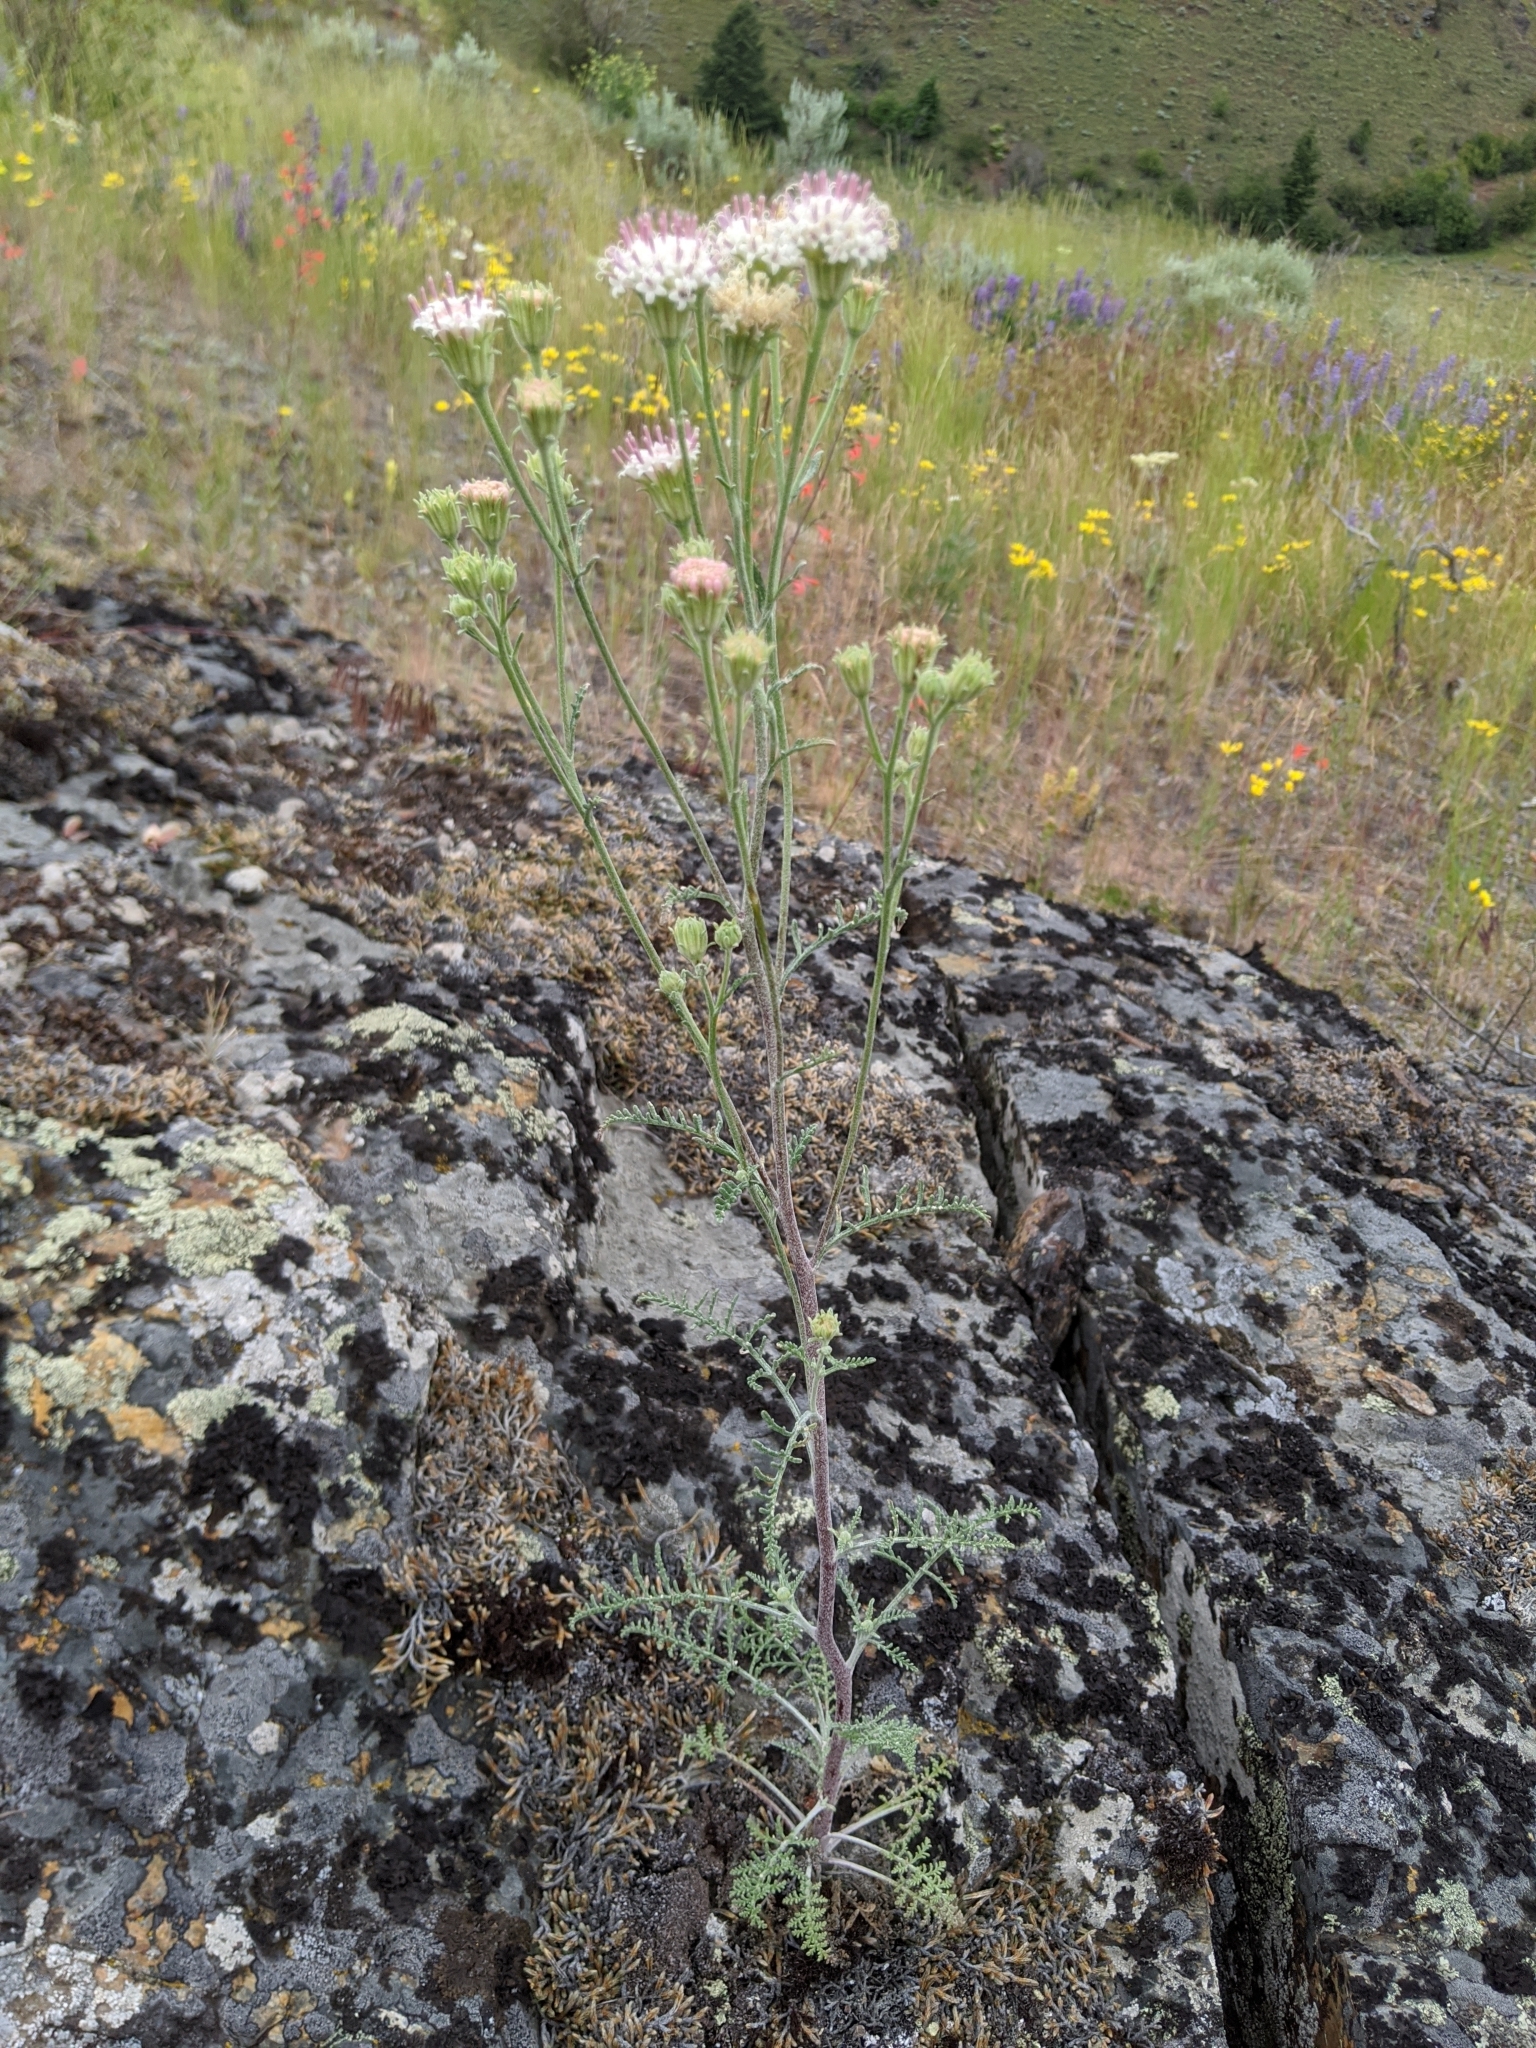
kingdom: Plantae
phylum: Tracheophyta
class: Magnoliopsida
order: Asterales
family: Asteraceae
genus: Chaenactis
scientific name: Chaenactis douglasii
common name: Hoary pincushion
